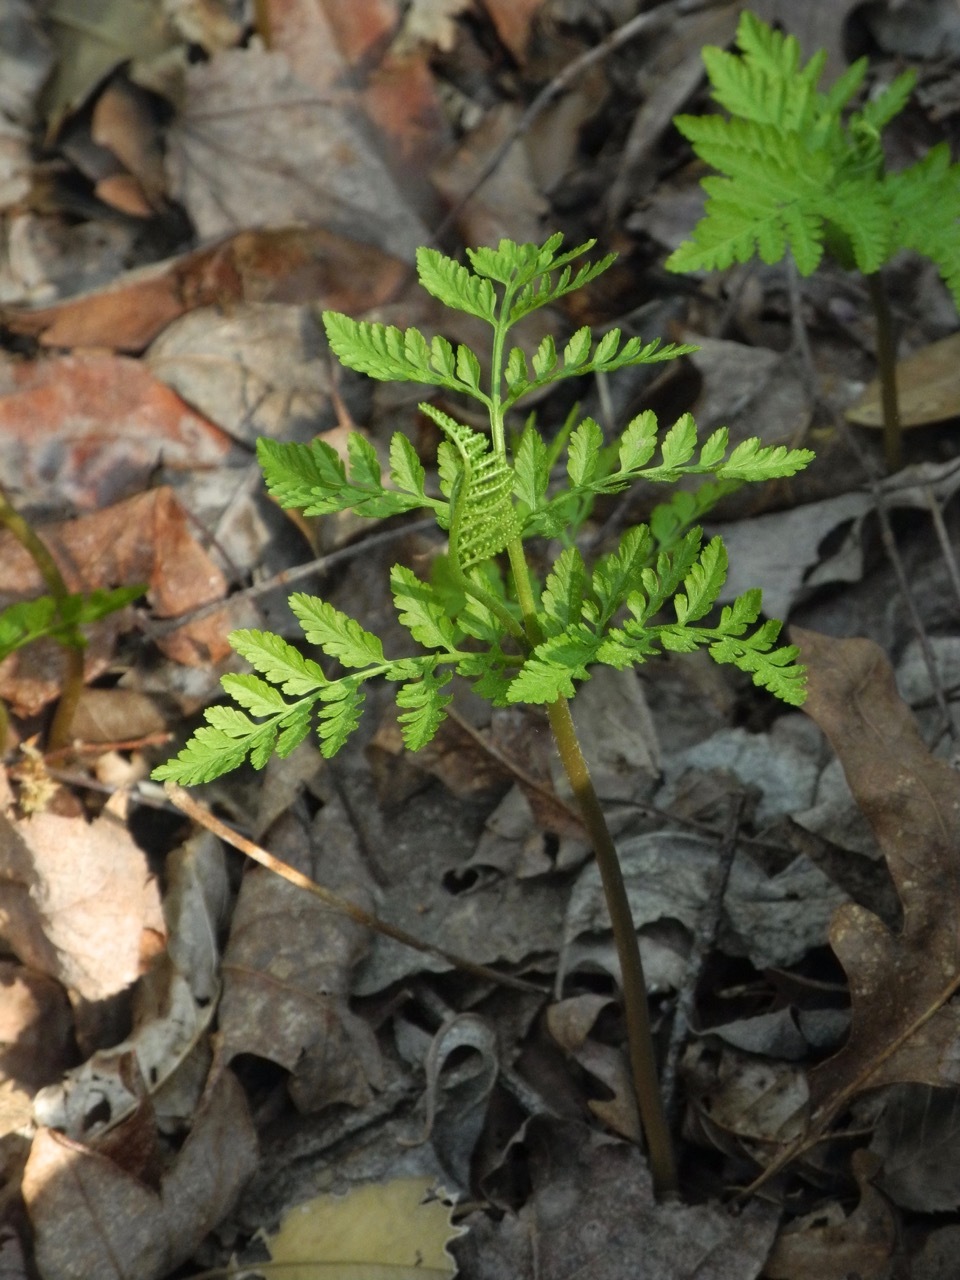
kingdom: Plantae
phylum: Tracheophyta
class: Polypodiopsida
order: Ophioglossales
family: Ophioglossaceae
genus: Botrypus
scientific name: Botrypus virginianus
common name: Common grapefern
